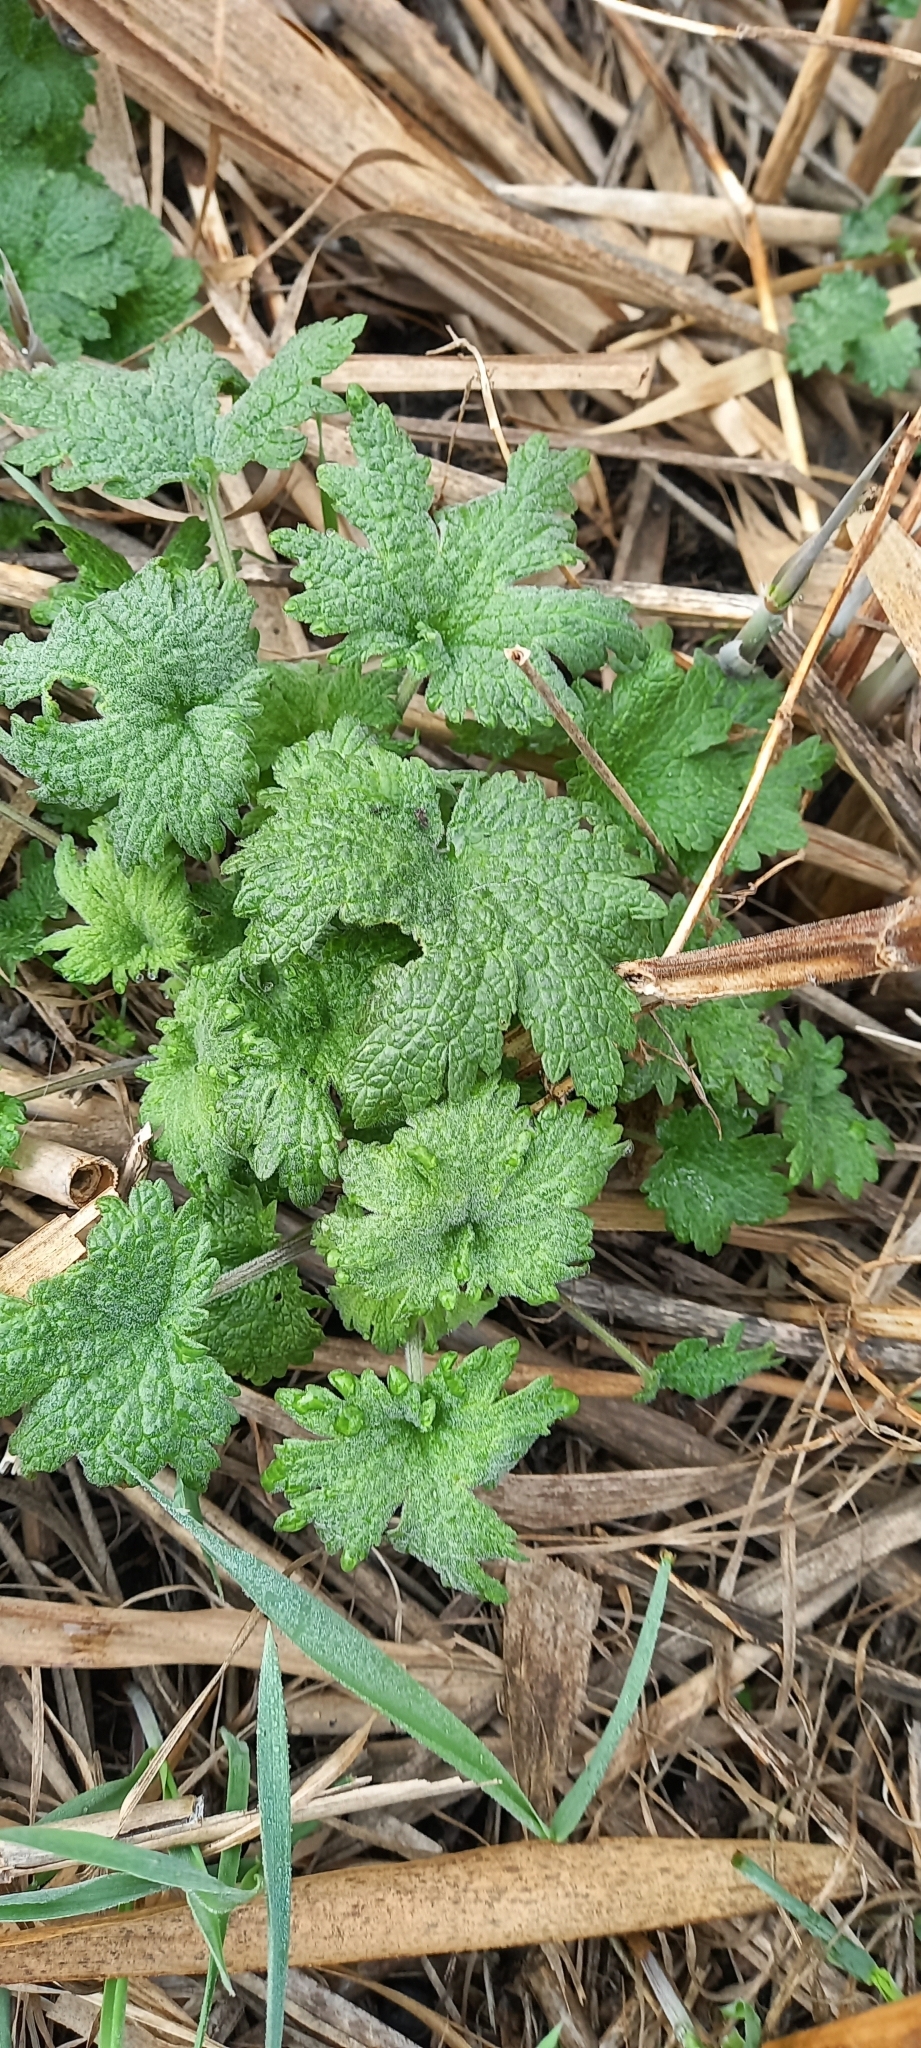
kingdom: Plantae
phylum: Tracheophyta
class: Magnoliopsida
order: Lamiales
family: Lamiaceae
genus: Leonurus
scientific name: Leonurus quinquelobatus
